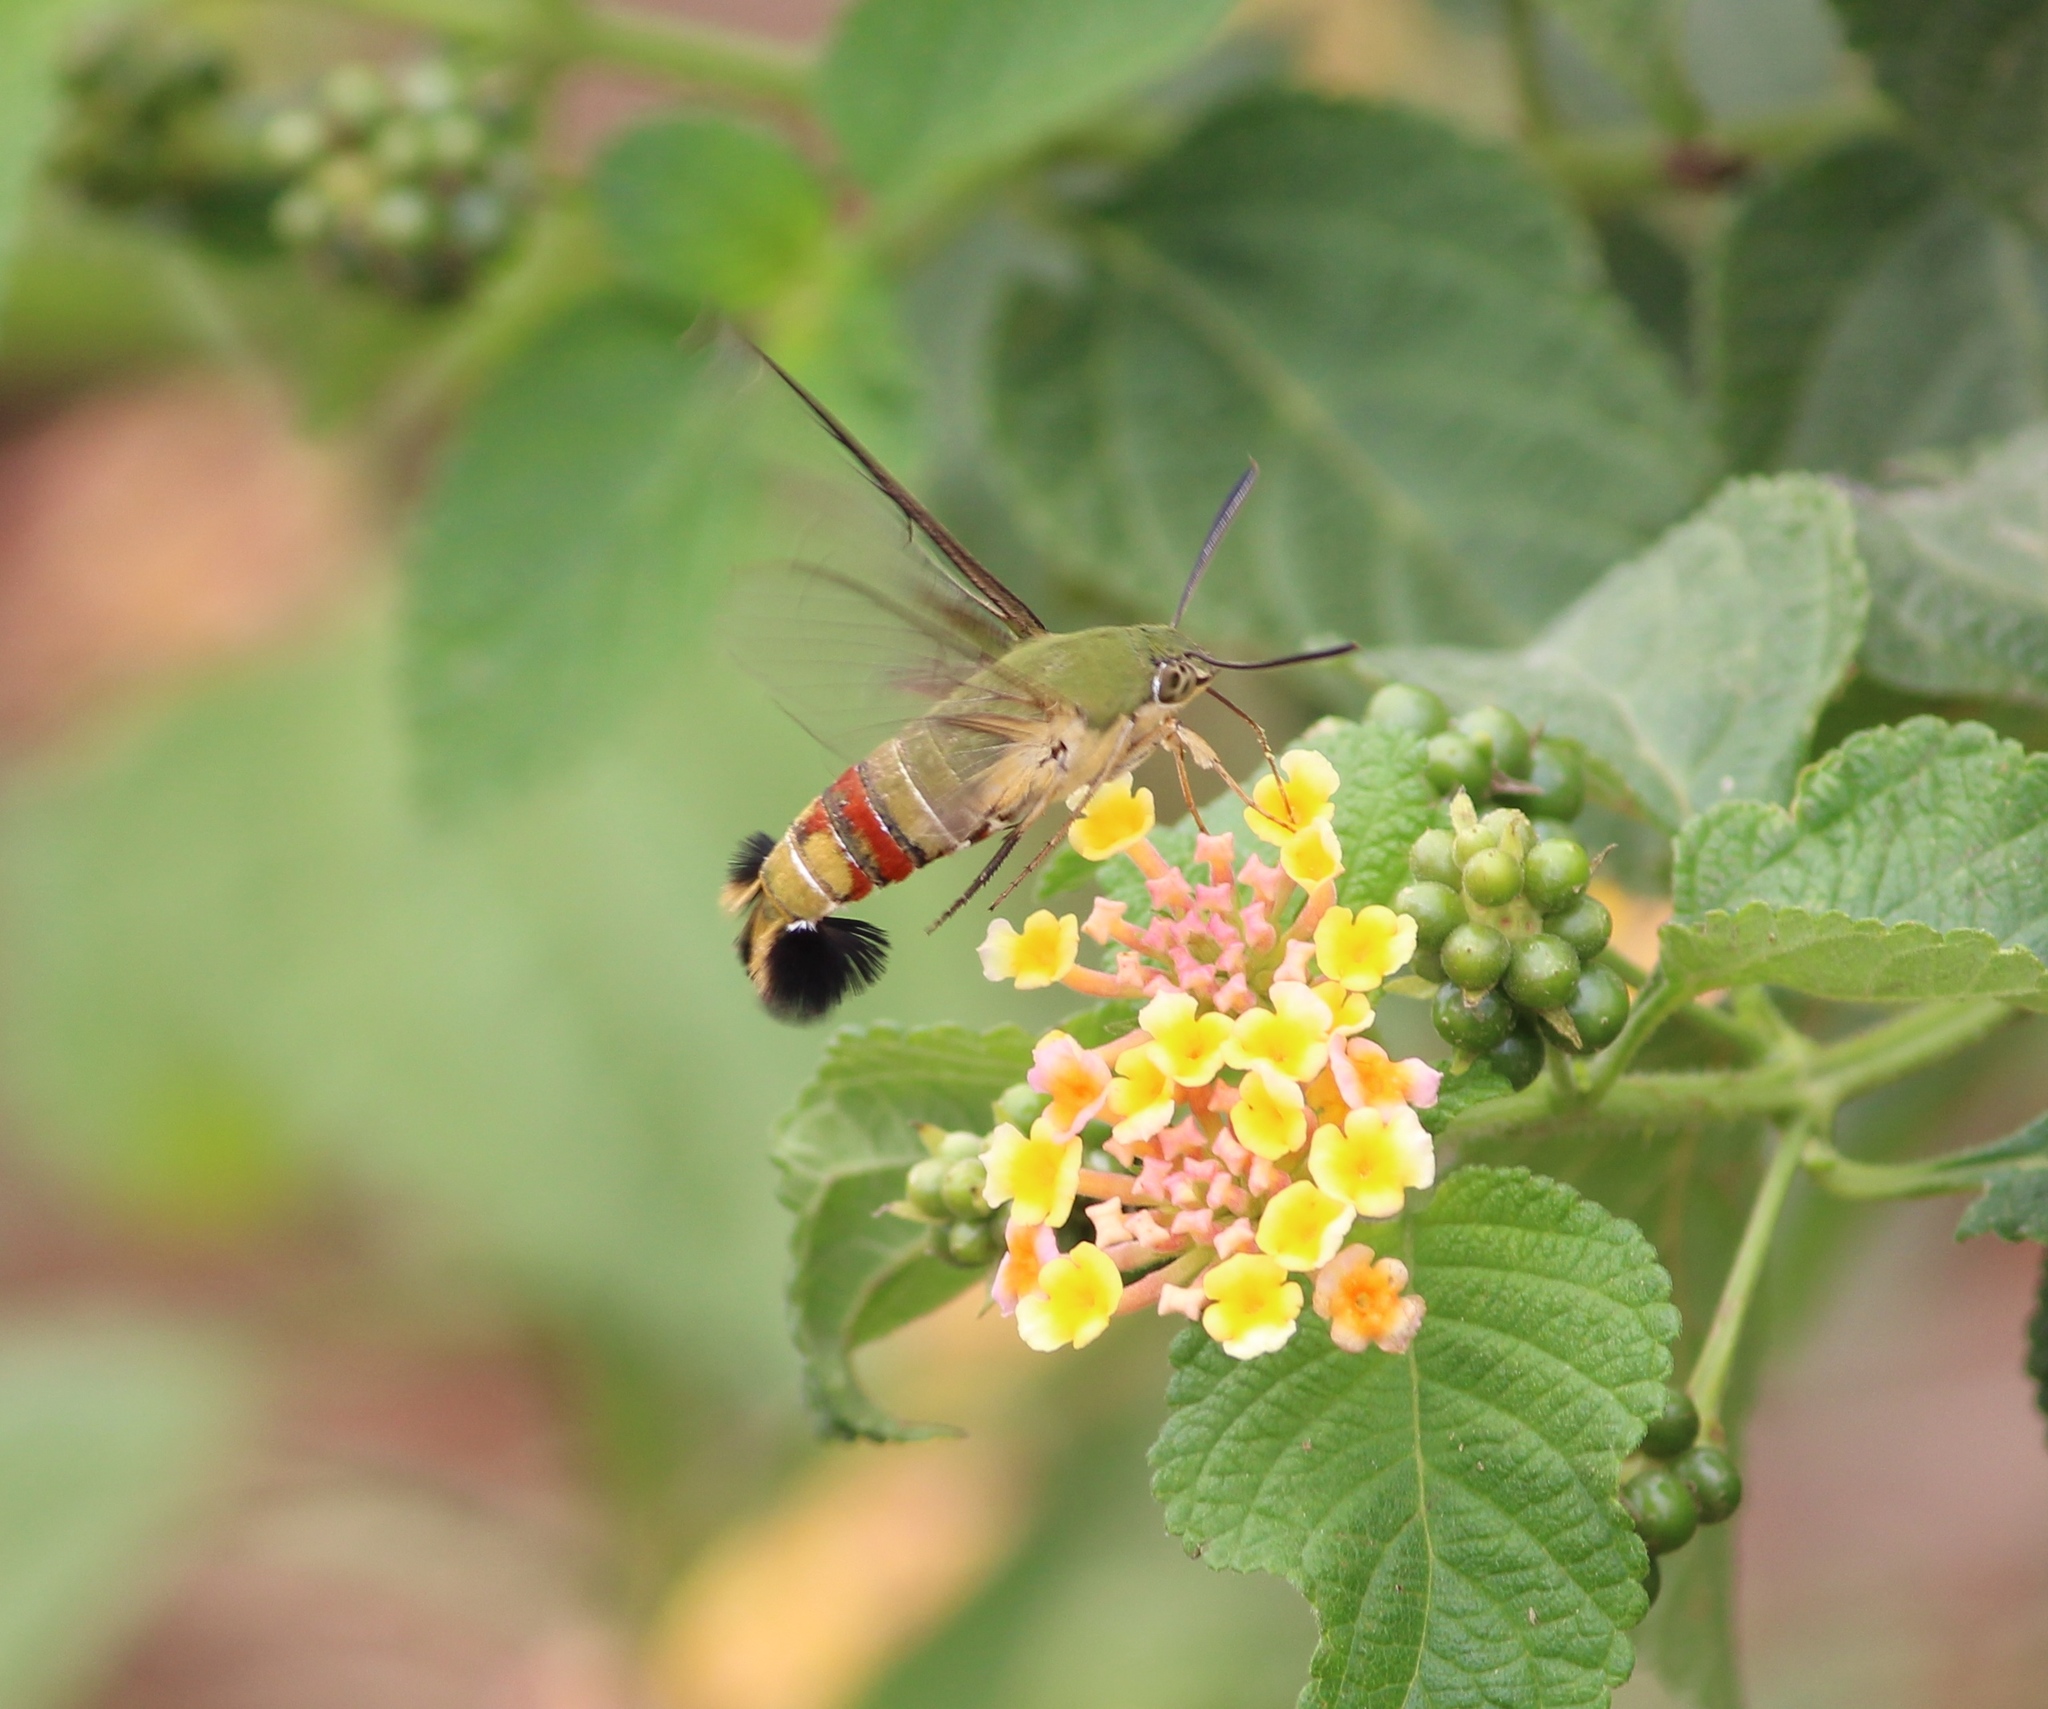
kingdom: Animalia
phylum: Arthropoda
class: Insecta
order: Lepidoptera
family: Sphingidae
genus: Cephonodes
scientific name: Cephonodes hylas
